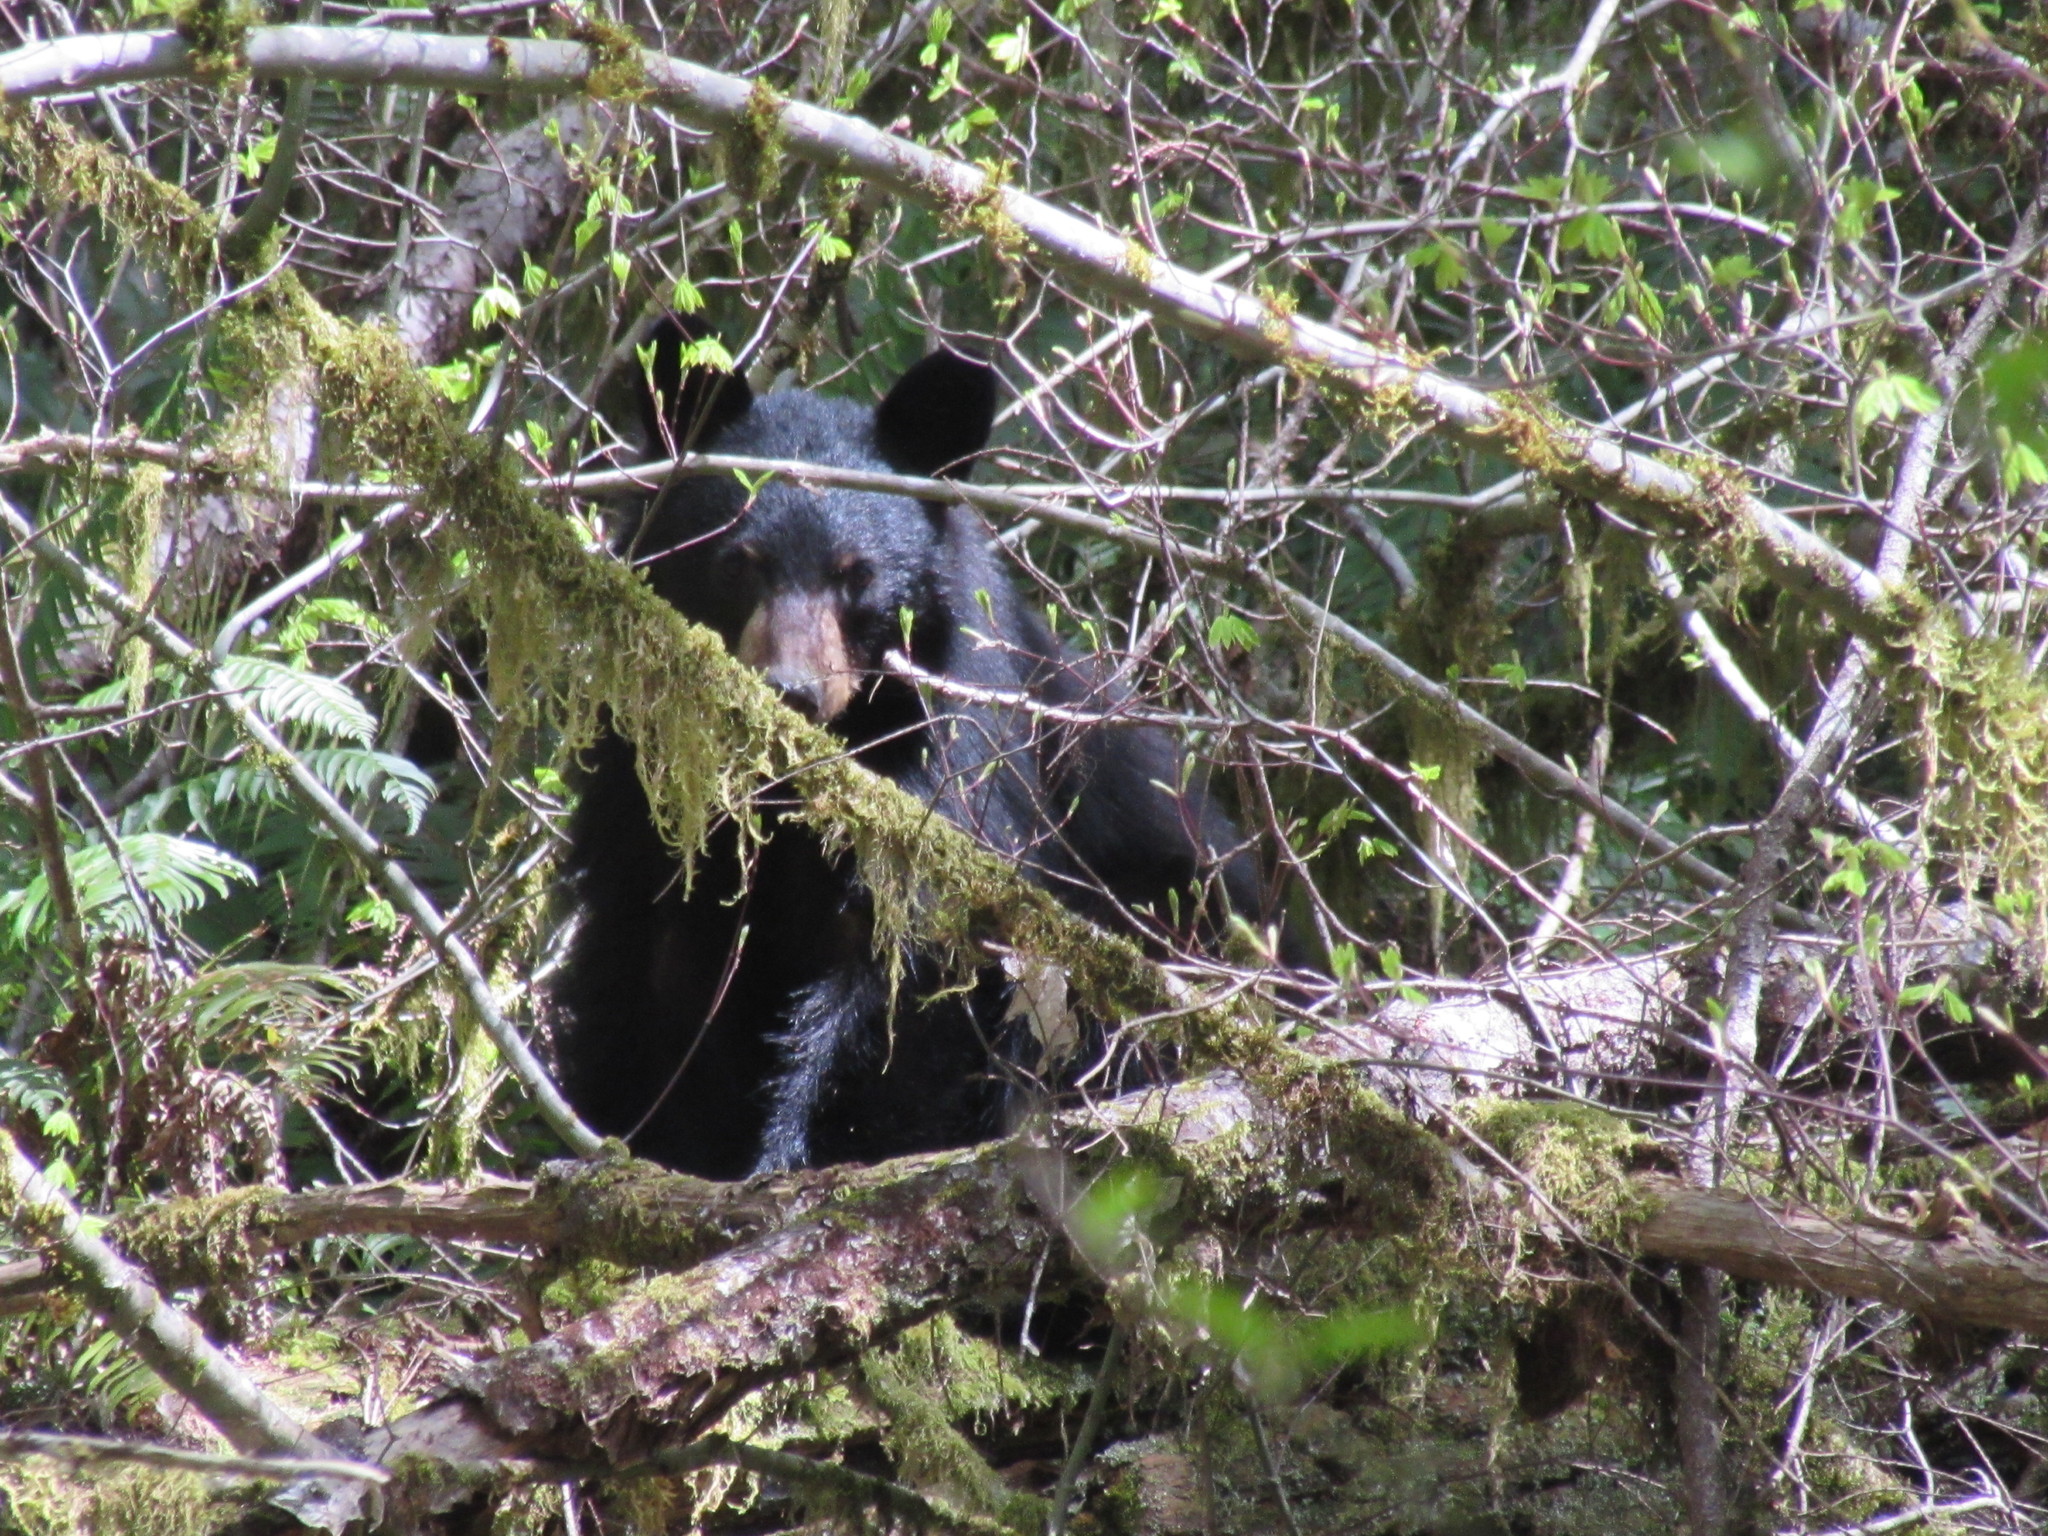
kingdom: Animalia
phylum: Chordata
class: Mammalia
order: Carnivora
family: Ursidae
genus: Ursus
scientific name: Ursus americanus
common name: American black bear
